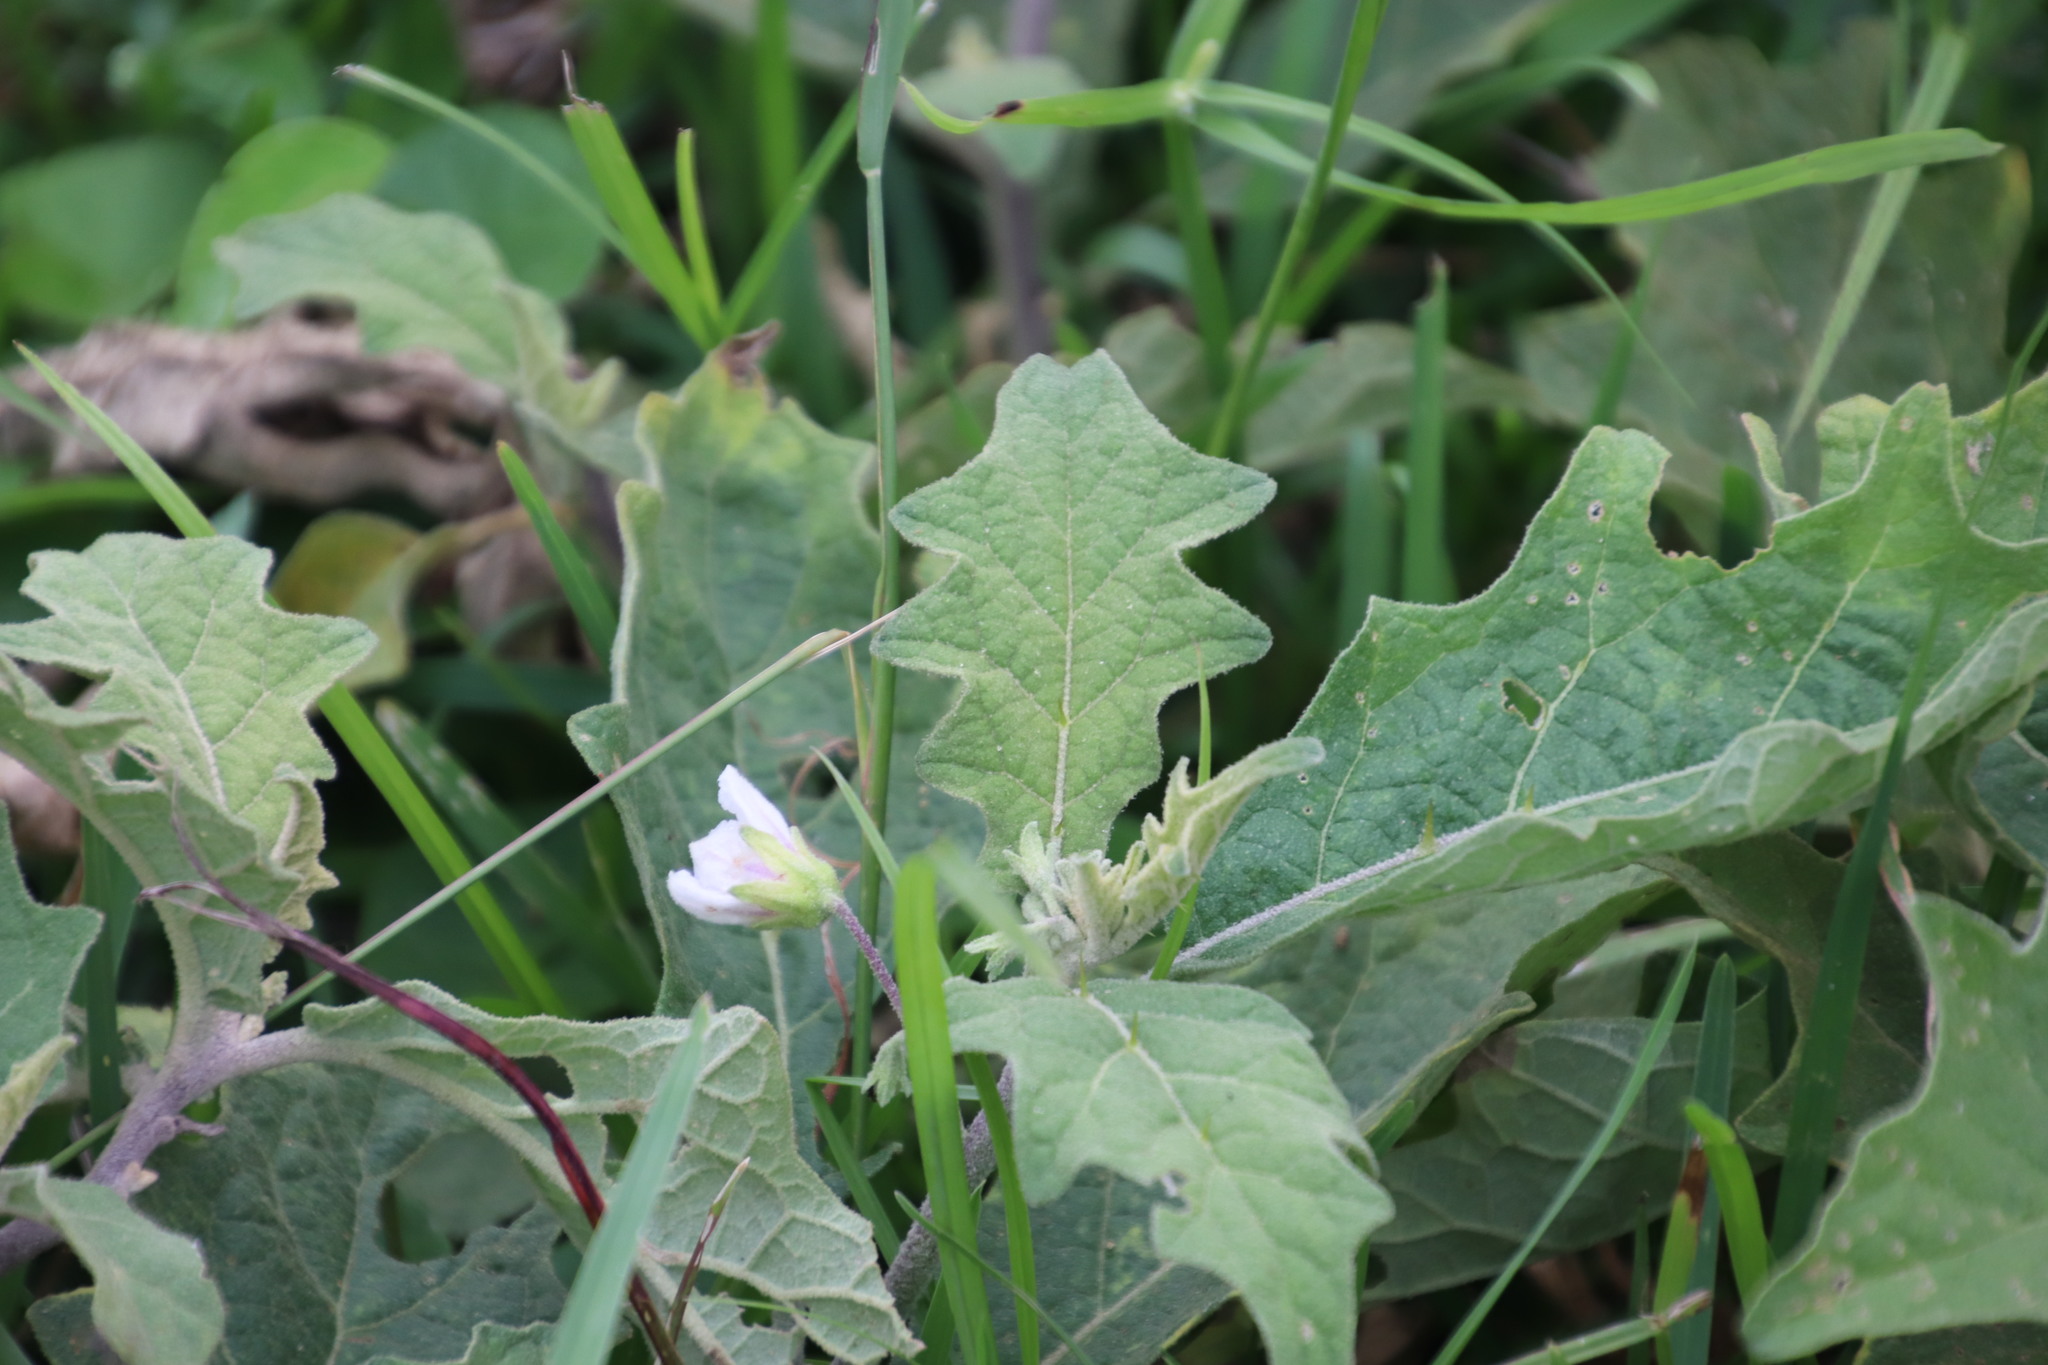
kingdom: Plantae
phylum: Tracheophyta
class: Magnoliopsida
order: Solanales
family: Solanaceae
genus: Solanum
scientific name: Solanum umtuma
